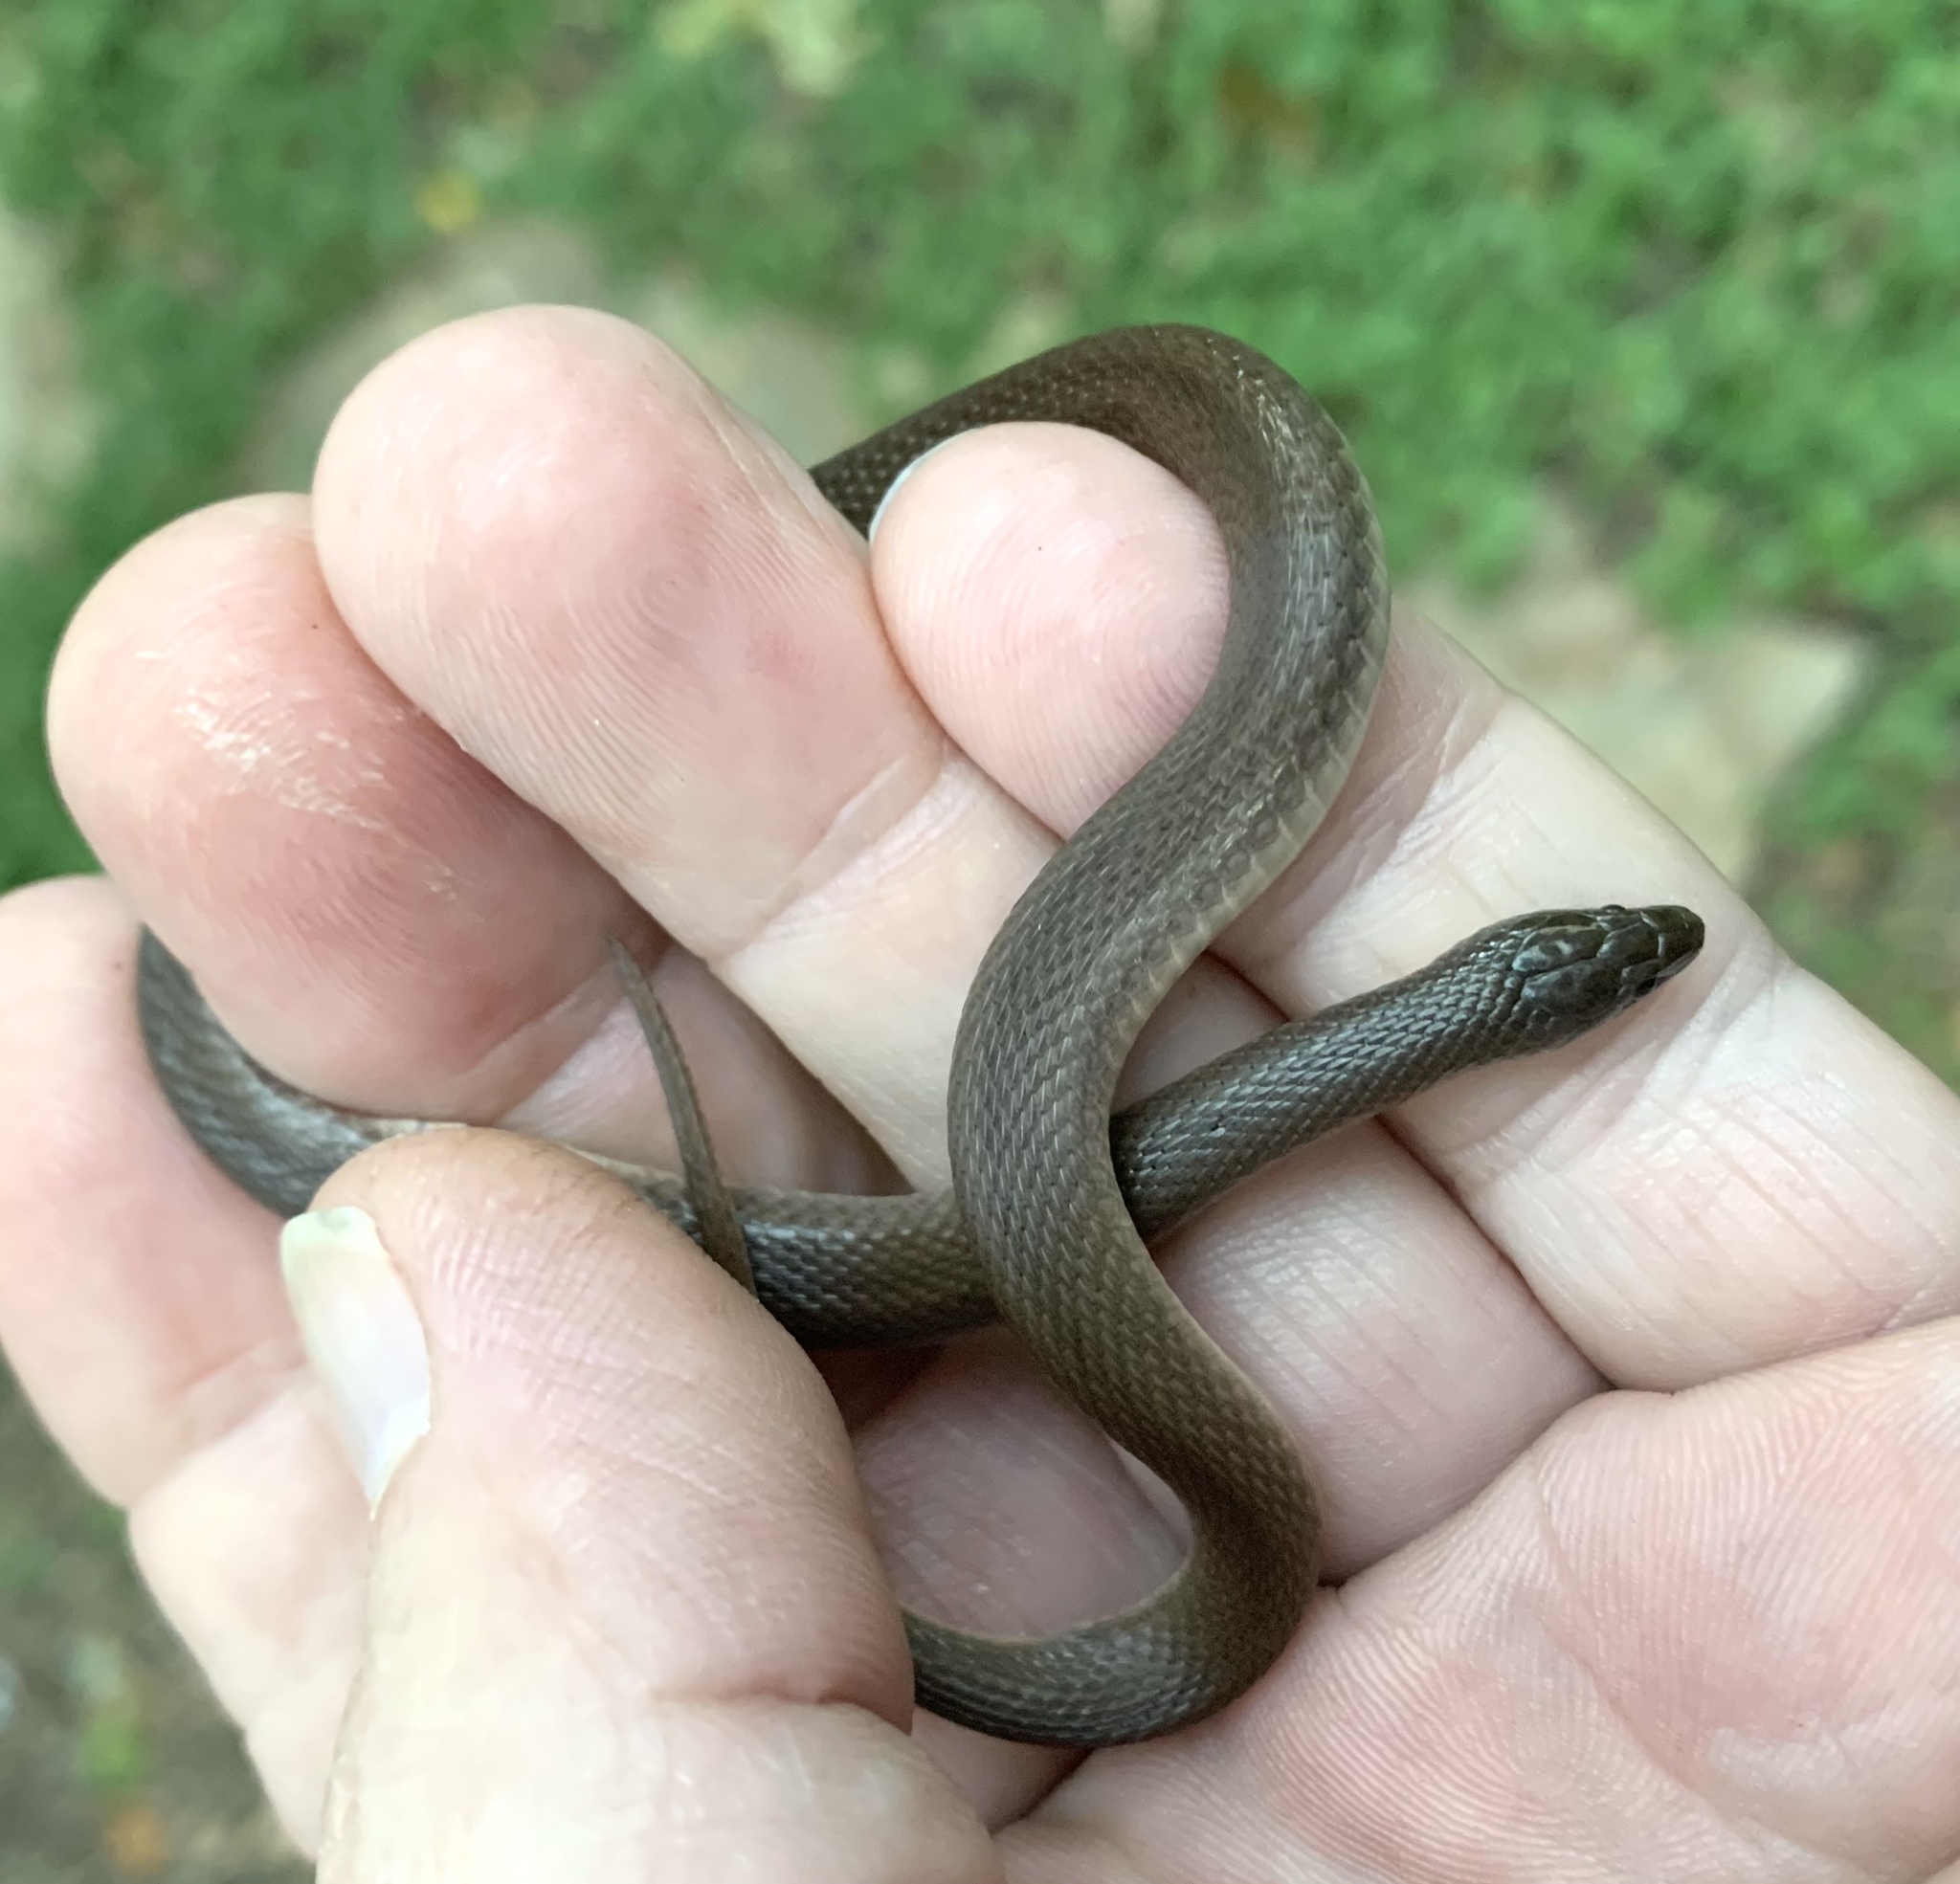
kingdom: Animalia
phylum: Chordata
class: Squamata
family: Colubridae
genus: Haldea
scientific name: Haldea striatula
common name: Rough earth snake
